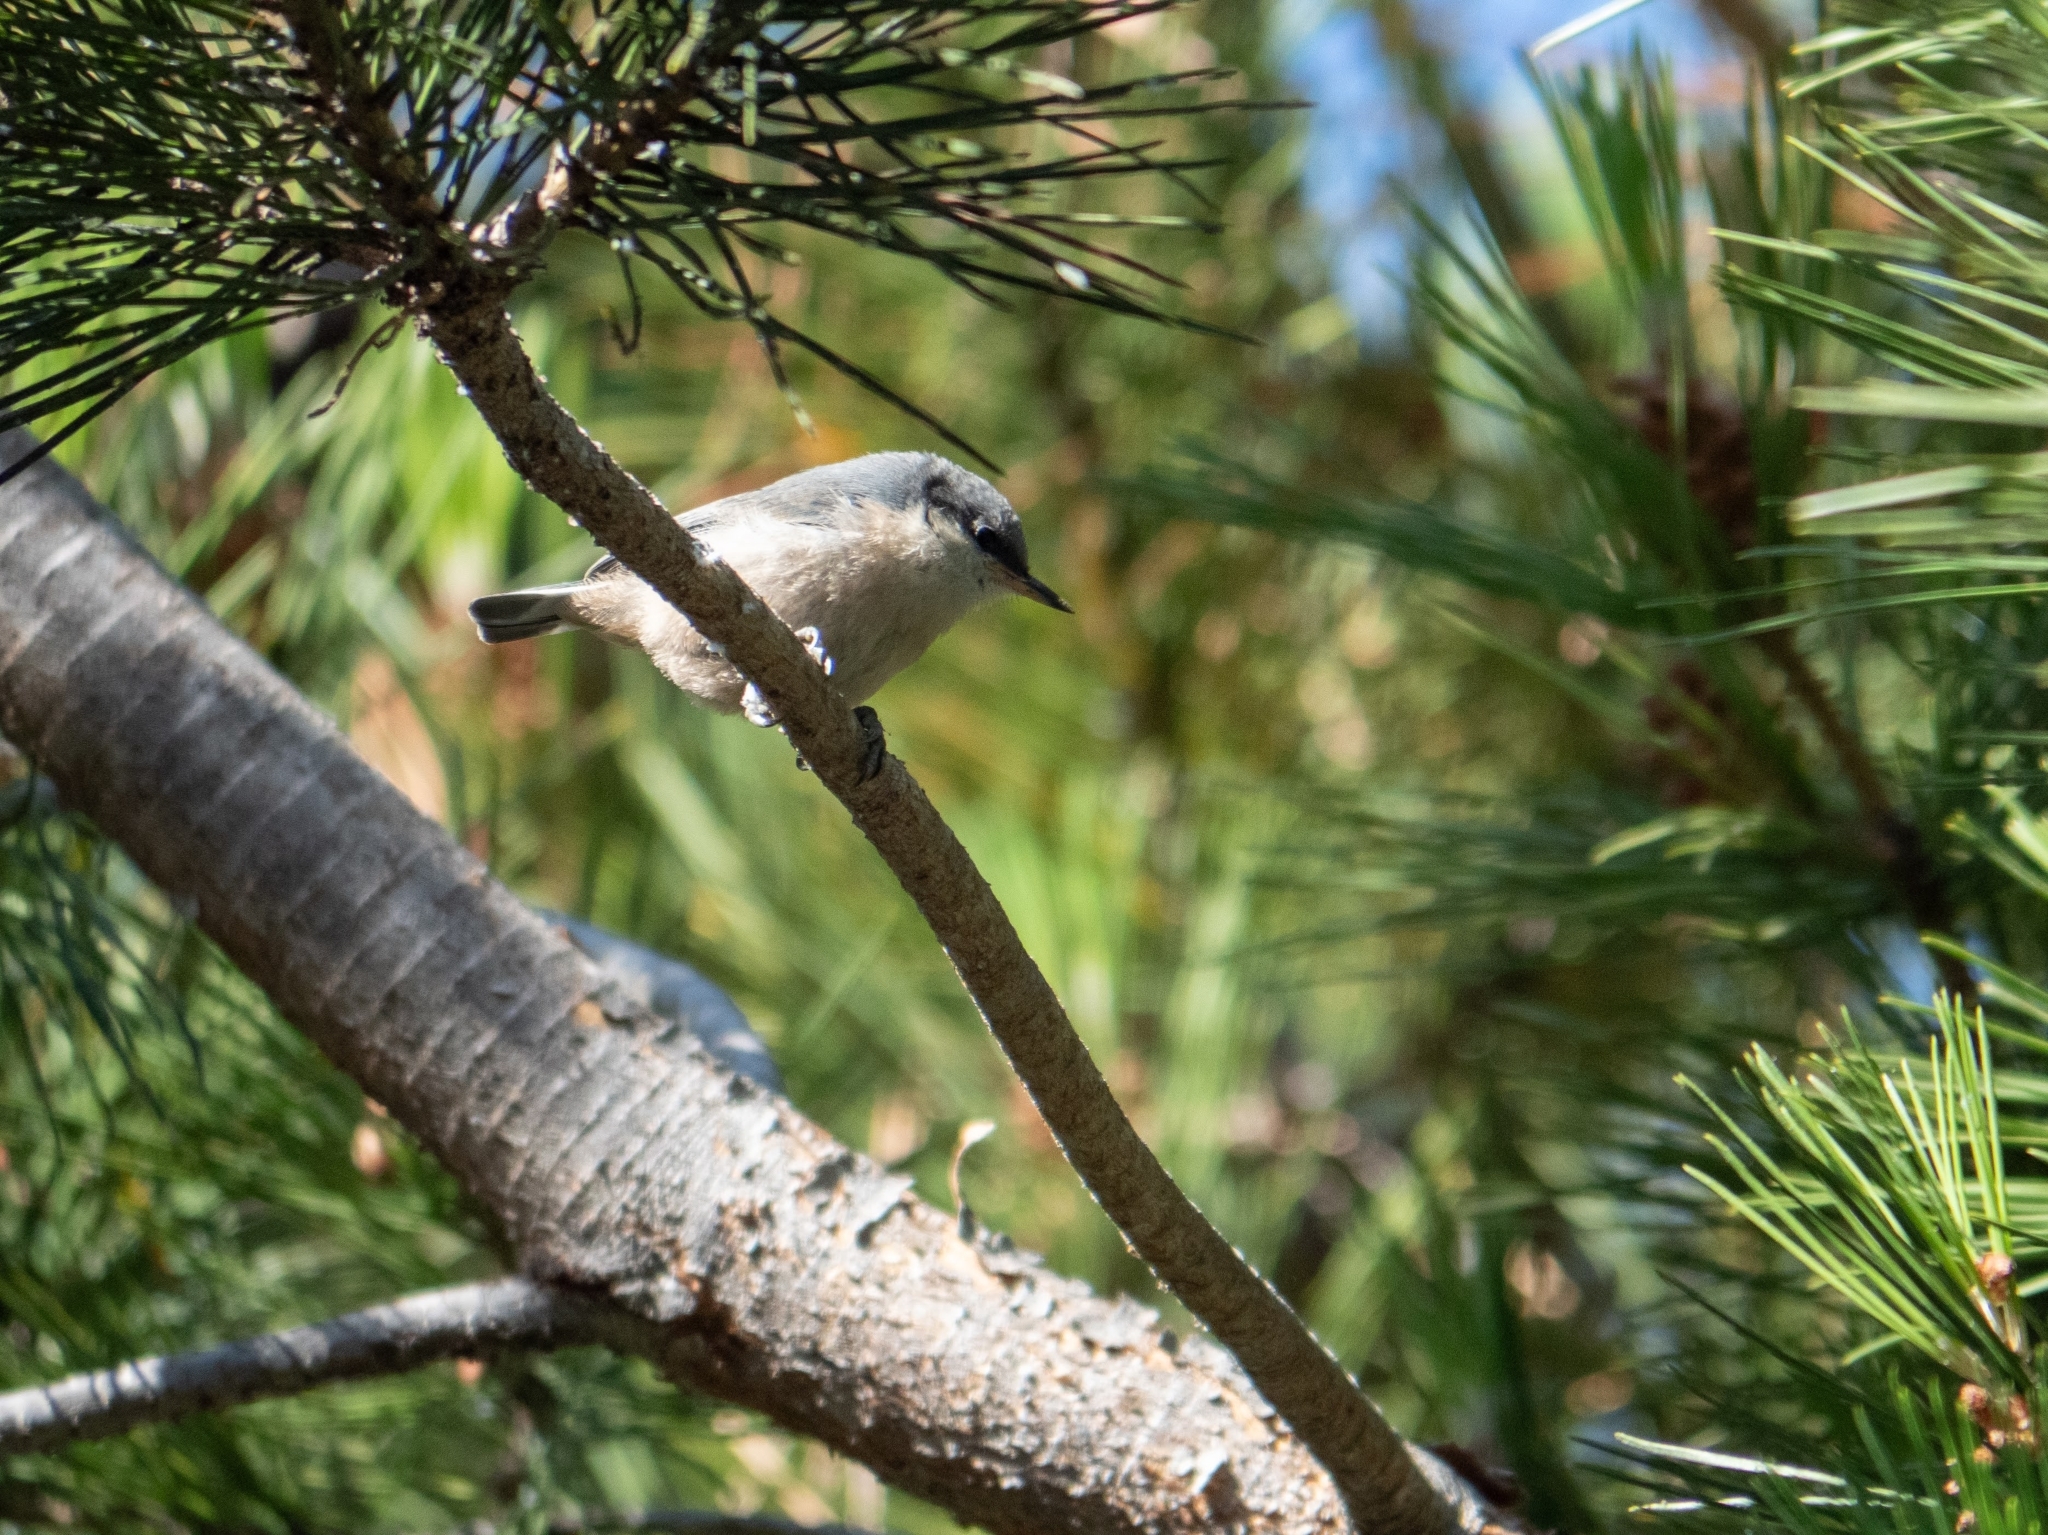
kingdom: Animalia
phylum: Chordata
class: Aves
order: Passeriformes
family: Sittidae
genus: Sitta
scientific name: Sitta pygmaea
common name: Pygmy nuthatch
